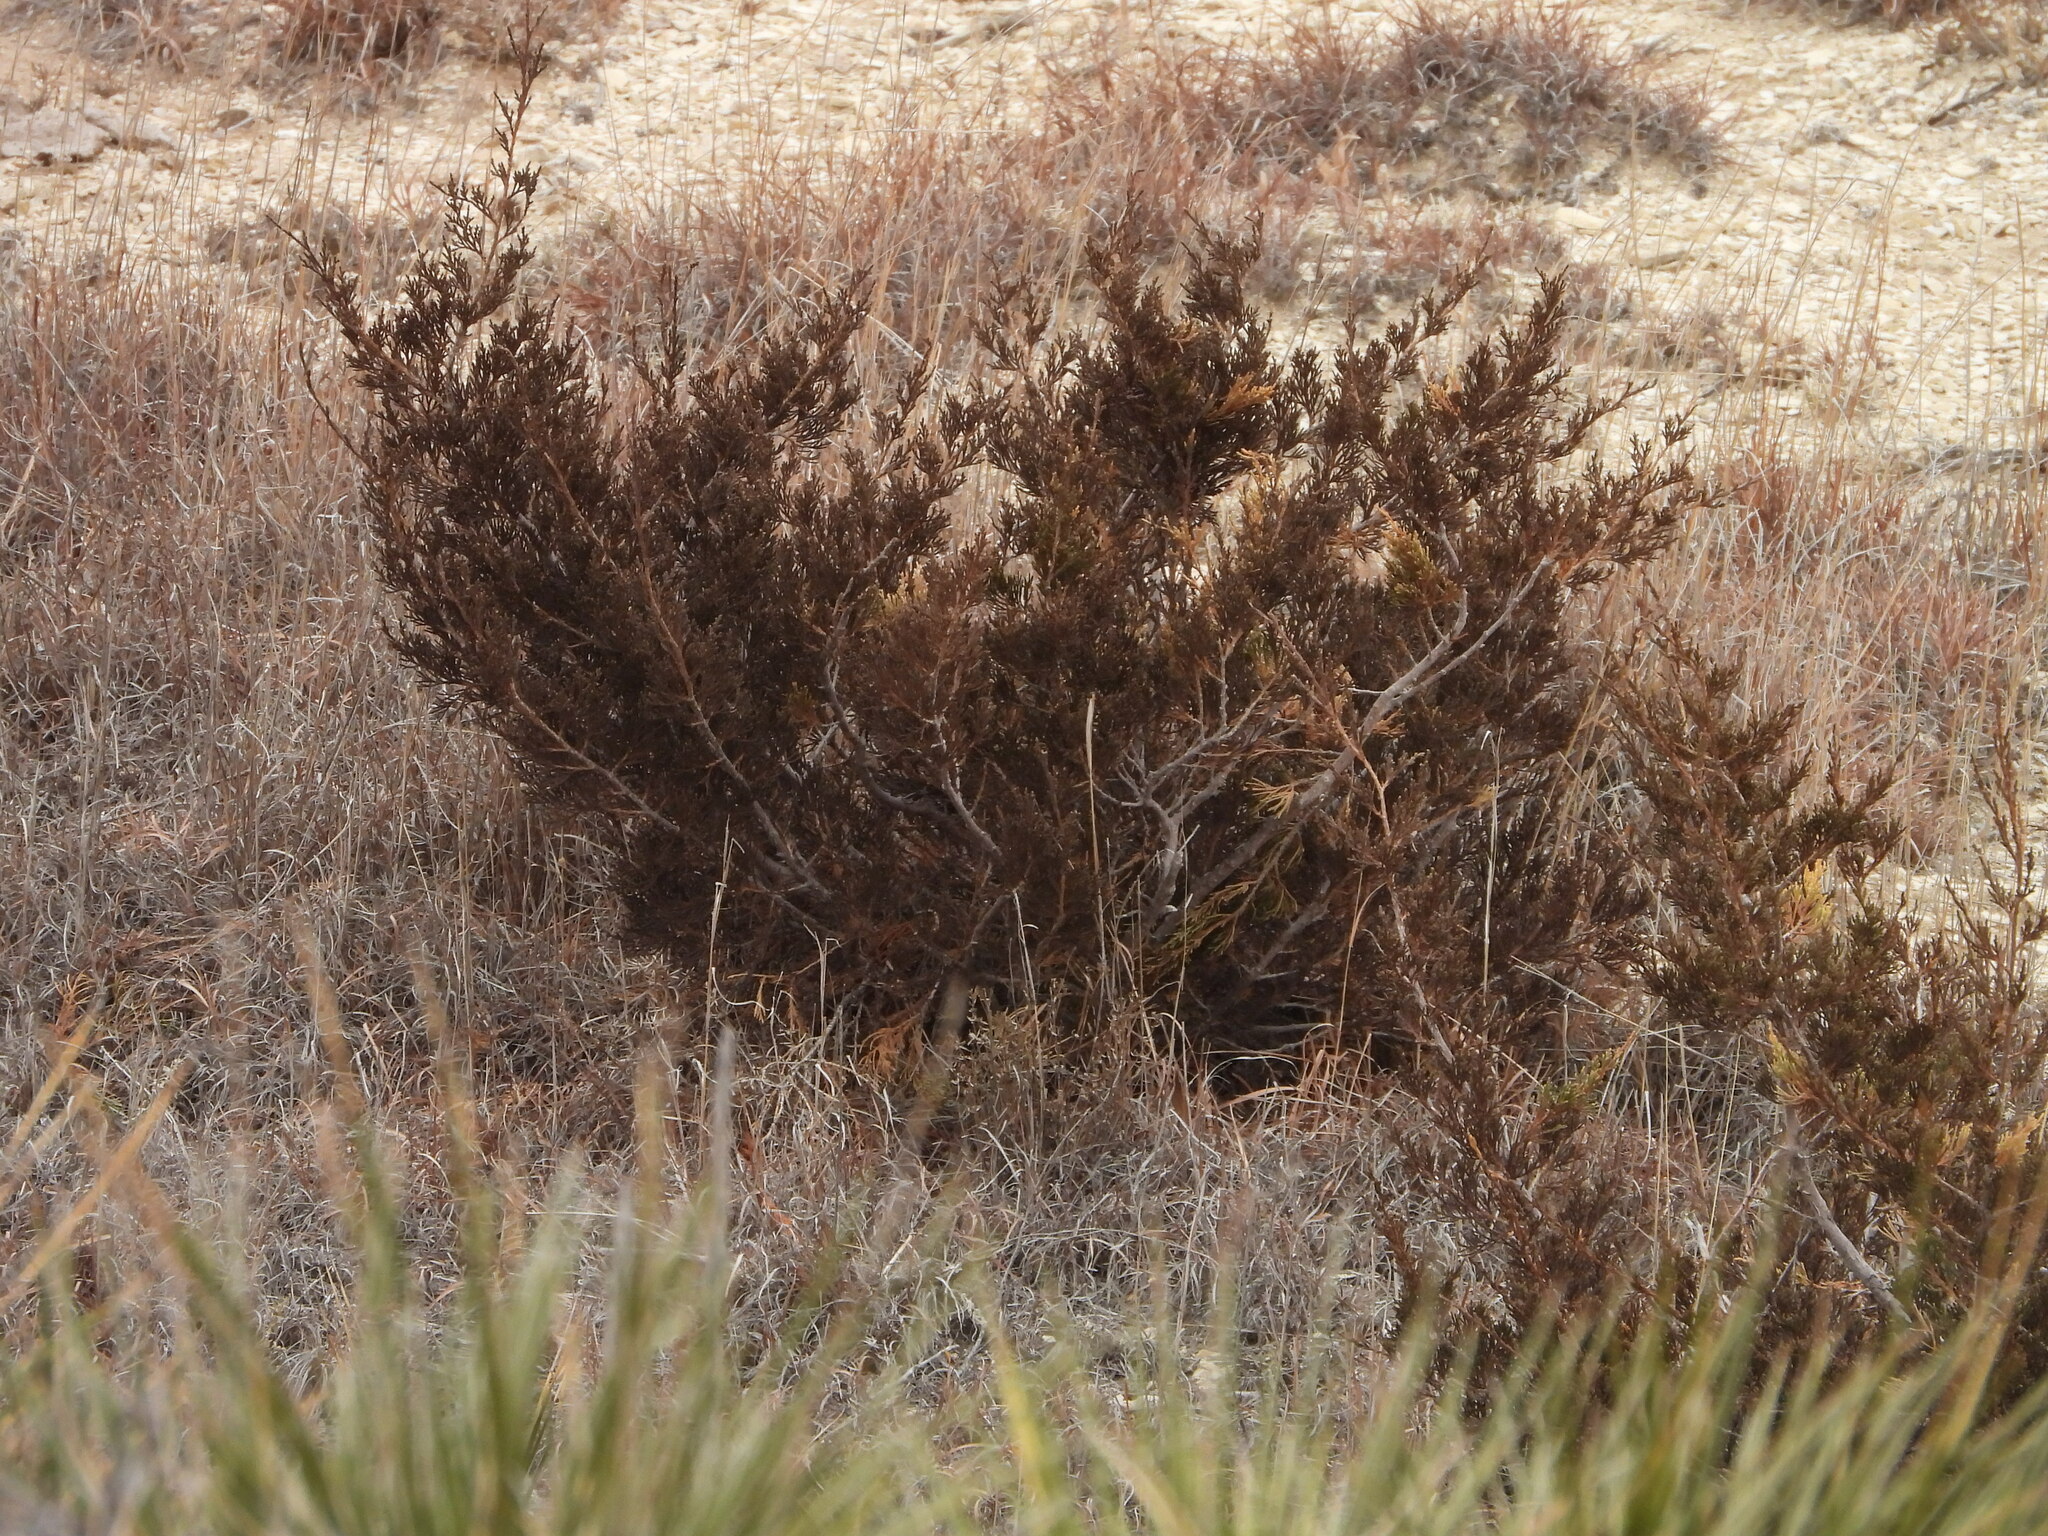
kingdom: Plantae
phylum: Tracheophyta
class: Pinopsida
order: Pinales
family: Cupressaceae
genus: Juniperus
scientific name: Juniperus virginiana
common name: Red juniper
